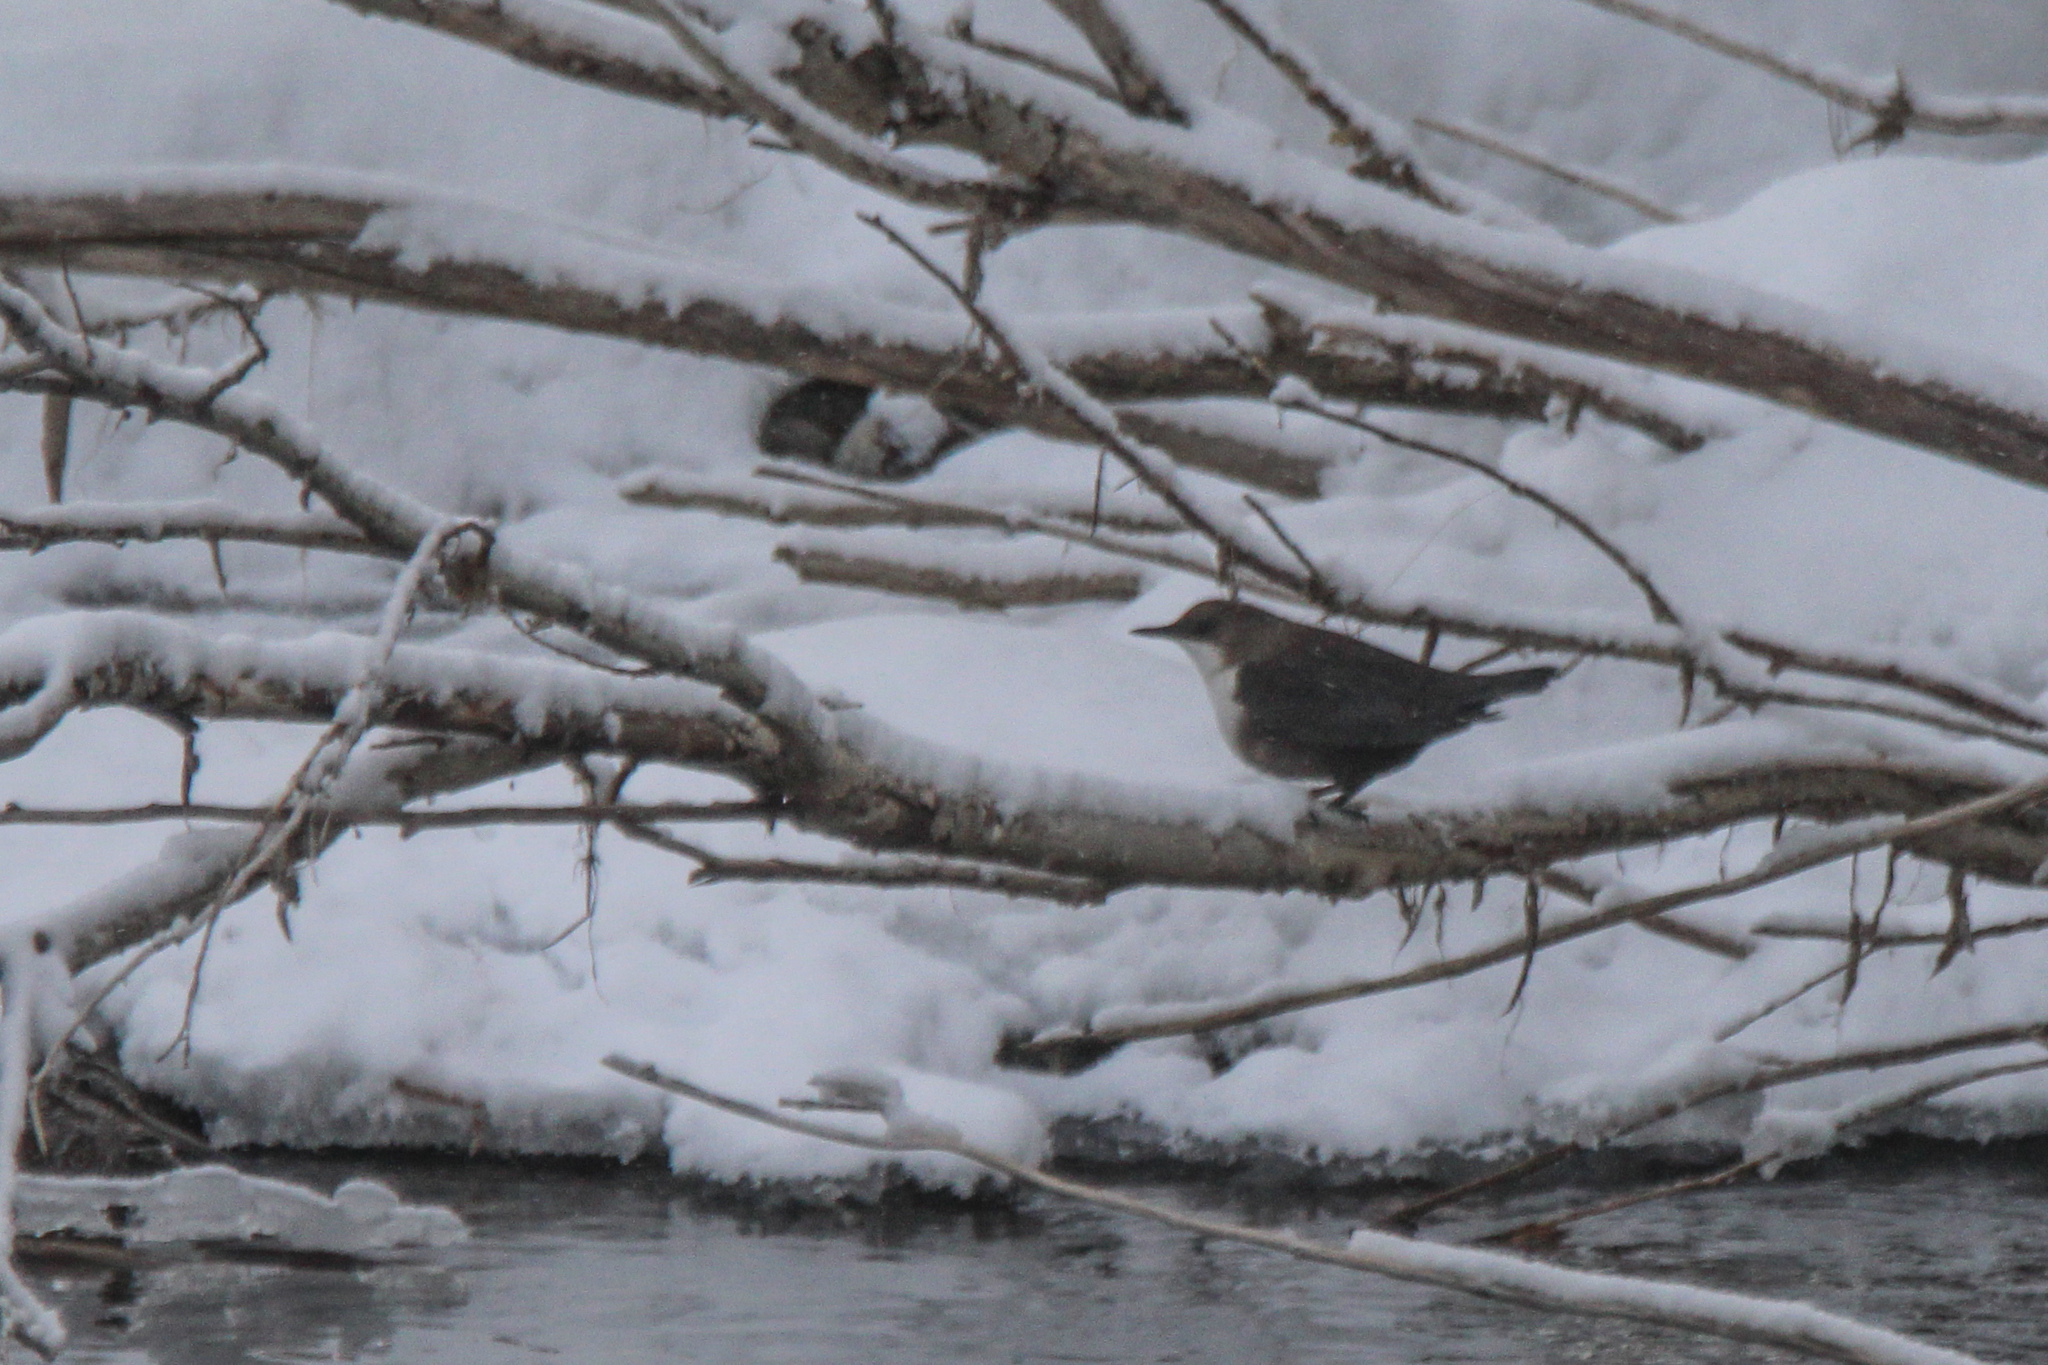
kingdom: Animalia
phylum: Chordata
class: Aves
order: Passeriformes
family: Cinclidae
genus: Cinclus
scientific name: Cinclus cinclus
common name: White-throated dipper
